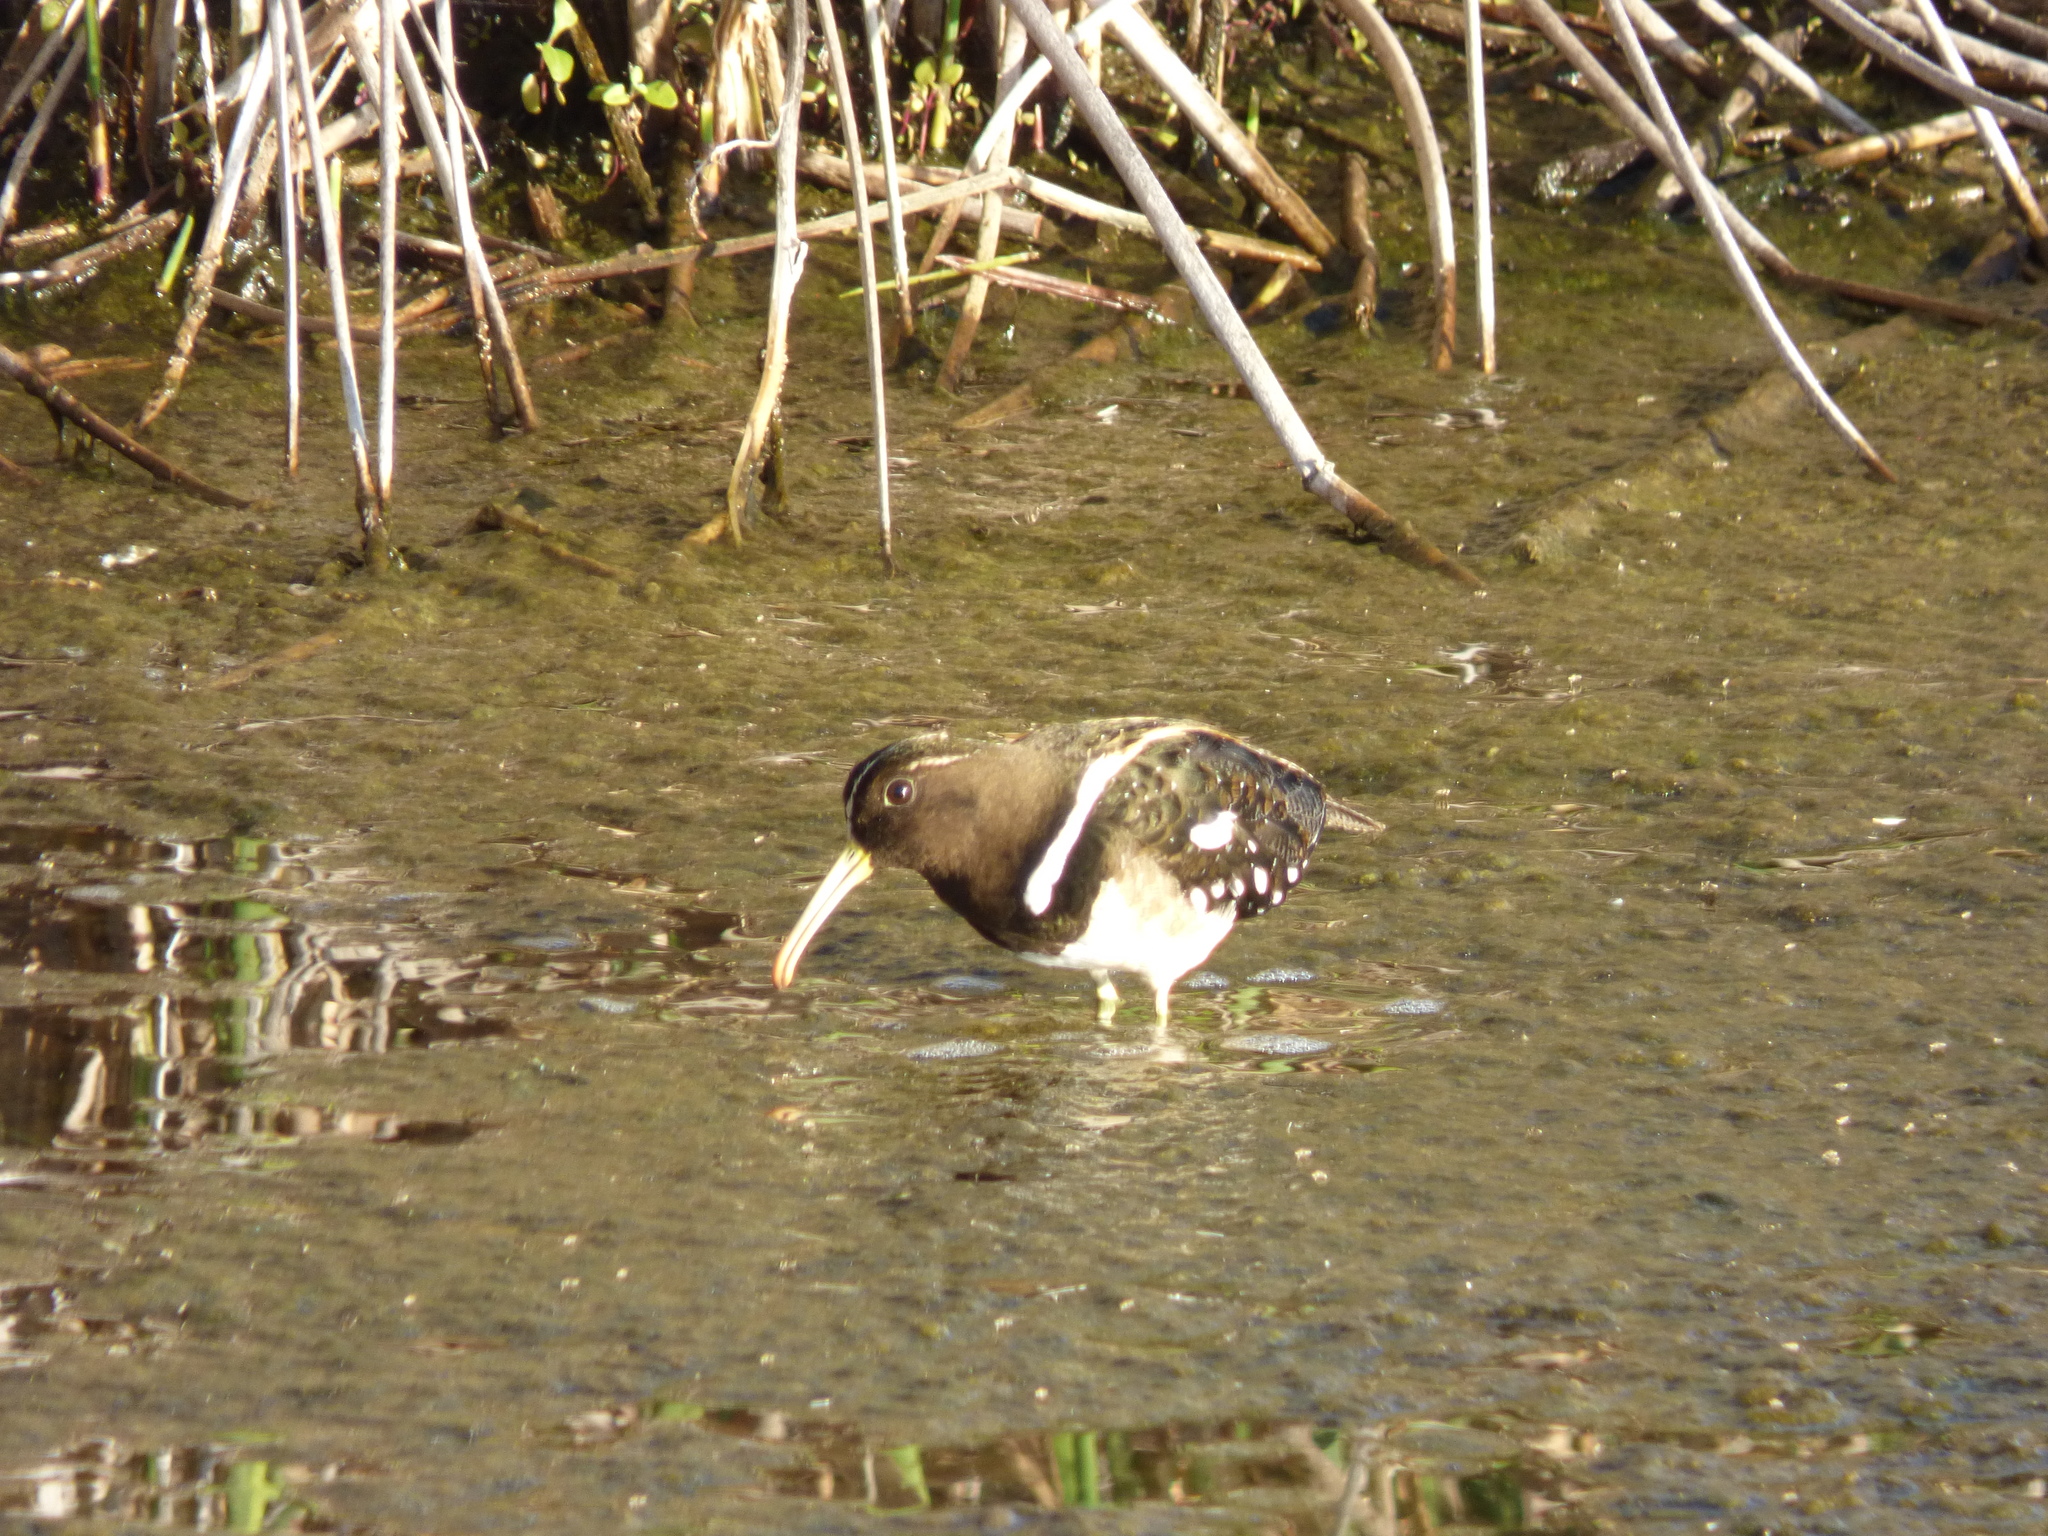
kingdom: Animalia
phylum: Chordata
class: Aves
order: Charadriiformes
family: Rostratulidae
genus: Nycticryphes
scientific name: Nycticryphes semicollaris
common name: South american painted-snipe
